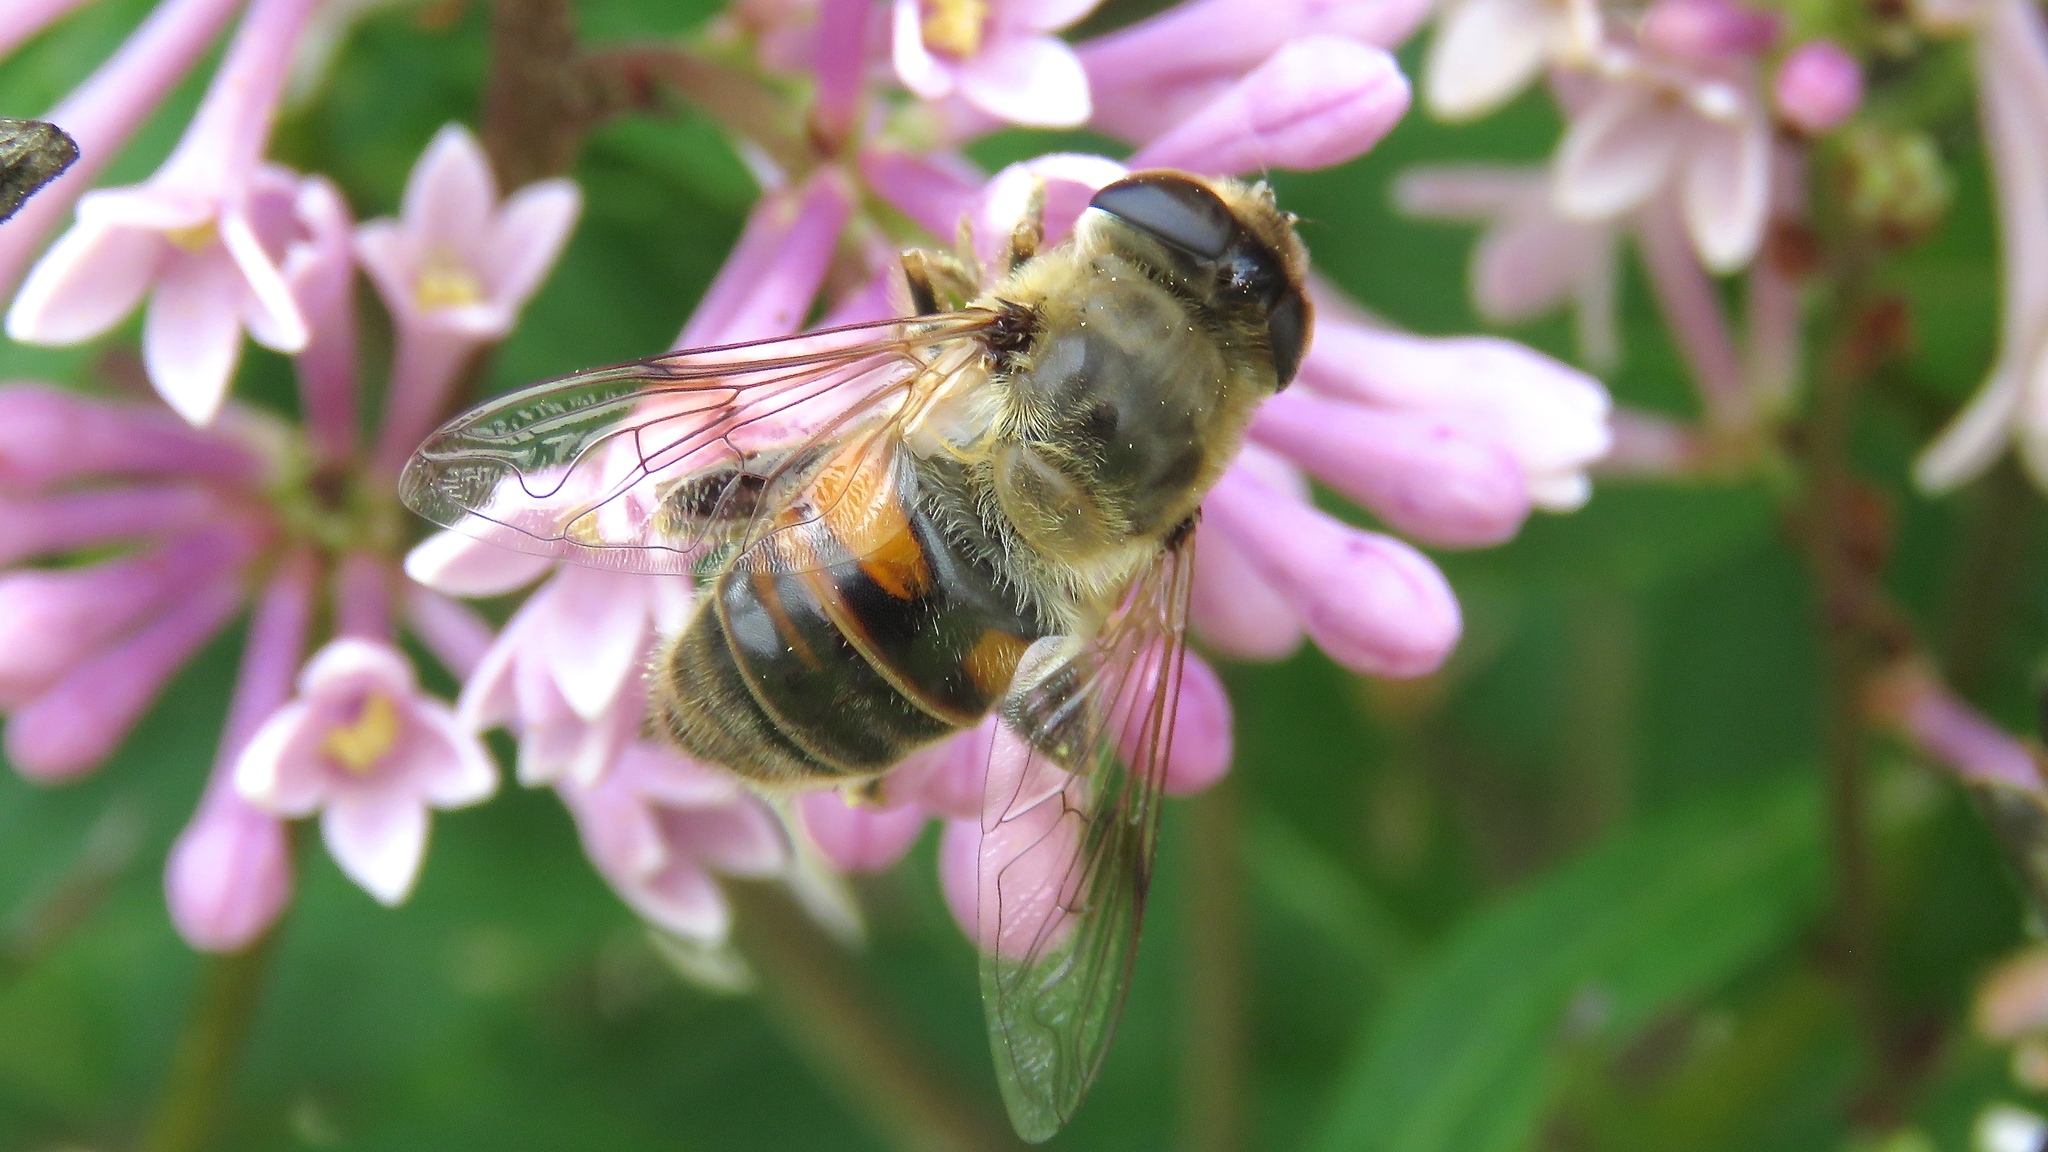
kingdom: Animalia
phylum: Arthropoda
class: Insecta
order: Diptera
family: Syrphidae
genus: Eristalis
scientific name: Eristalis tenax
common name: Drone fly
